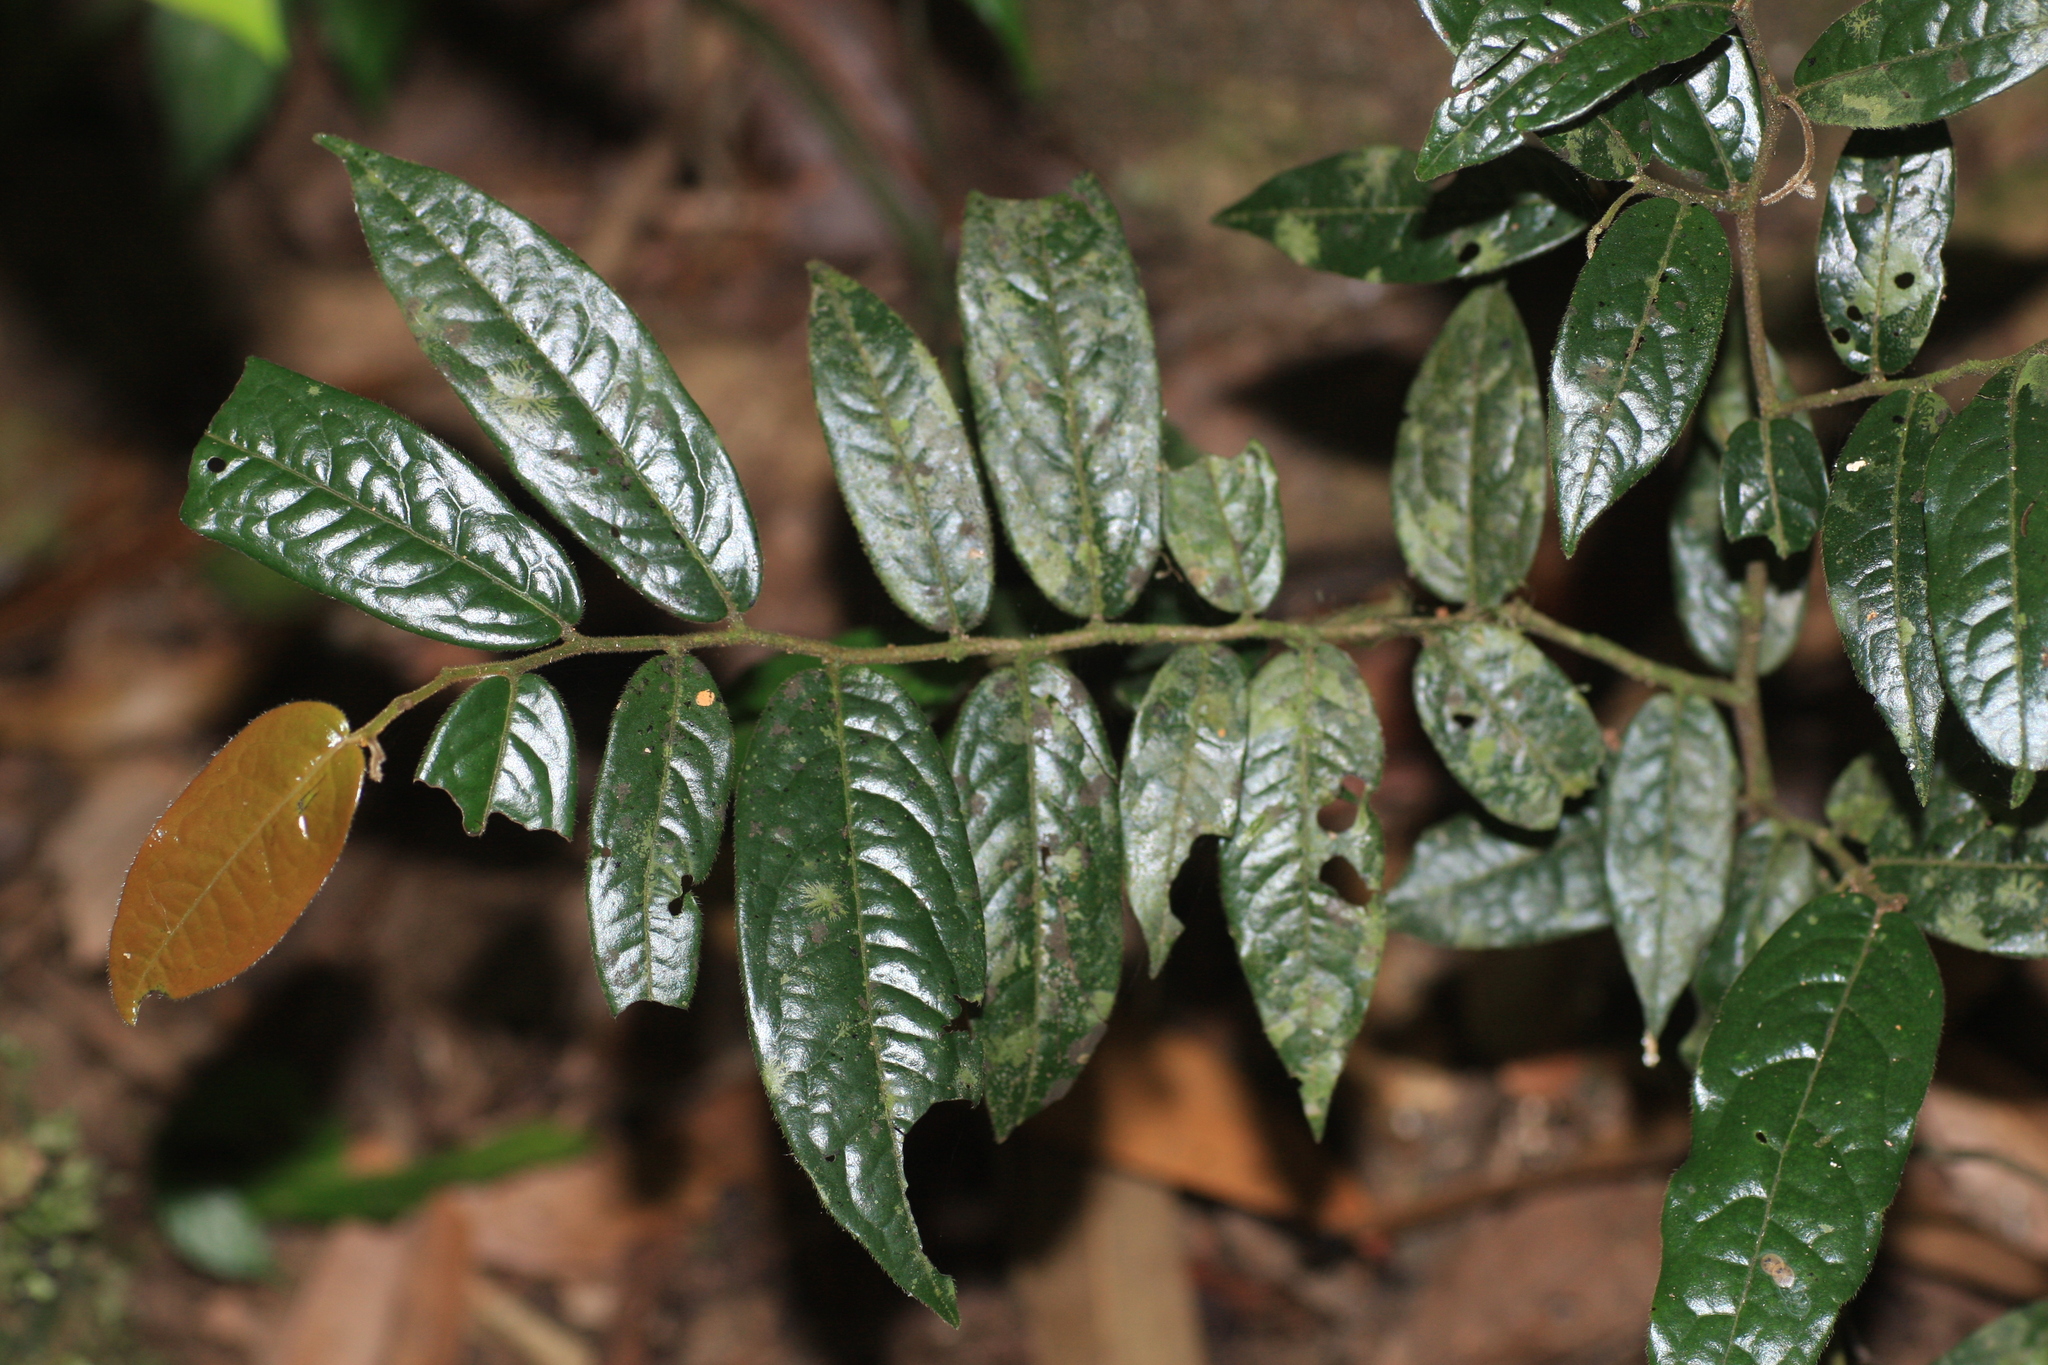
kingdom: Plantae
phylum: Tracheophyta
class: Magnoliopsida
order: Magnoliales
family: Annonaceae
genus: Miliusa
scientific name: Miliusa montana
